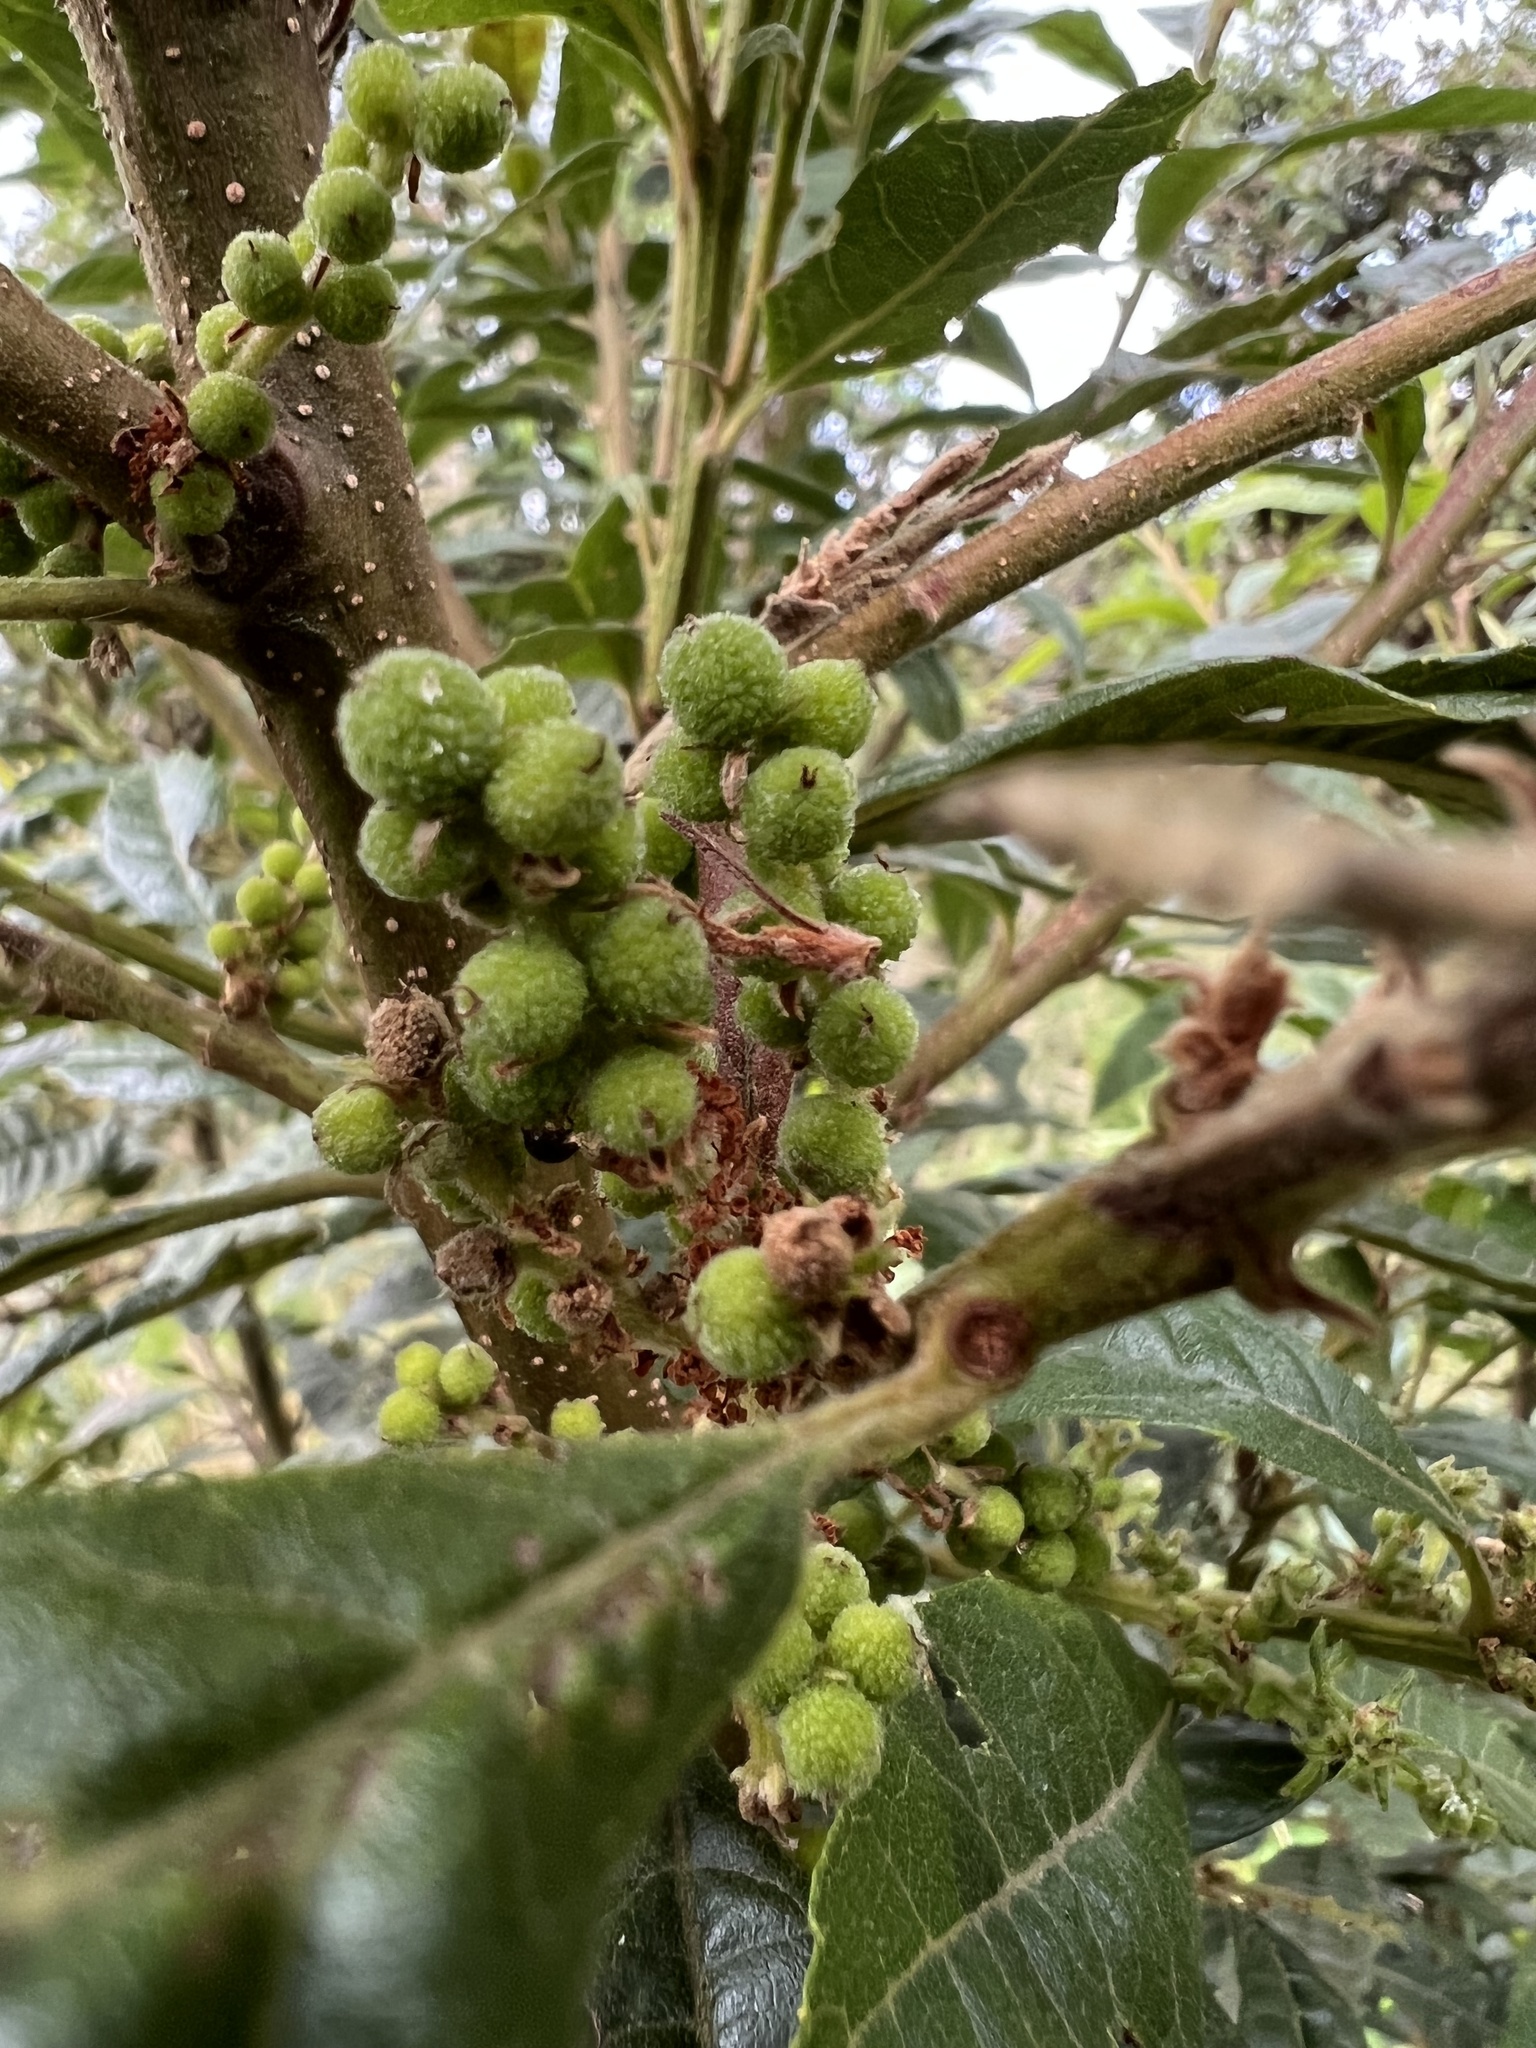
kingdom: Plantae
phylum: Tracheophyta
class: Magnoliopsida
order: Fagales
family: Myricaceae
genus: Morella
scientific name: Morella pubescens
